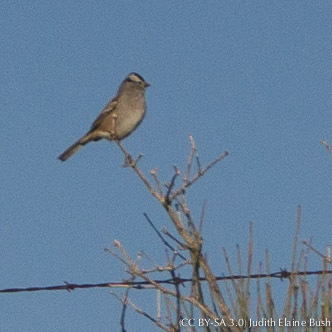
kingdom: Animalia
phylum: Chordata
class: Aves
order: Passeriformes
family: Passerellidae
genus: Zonotrichia
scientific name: Zonotrichia leucophrys
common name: White-crowned sparrow
